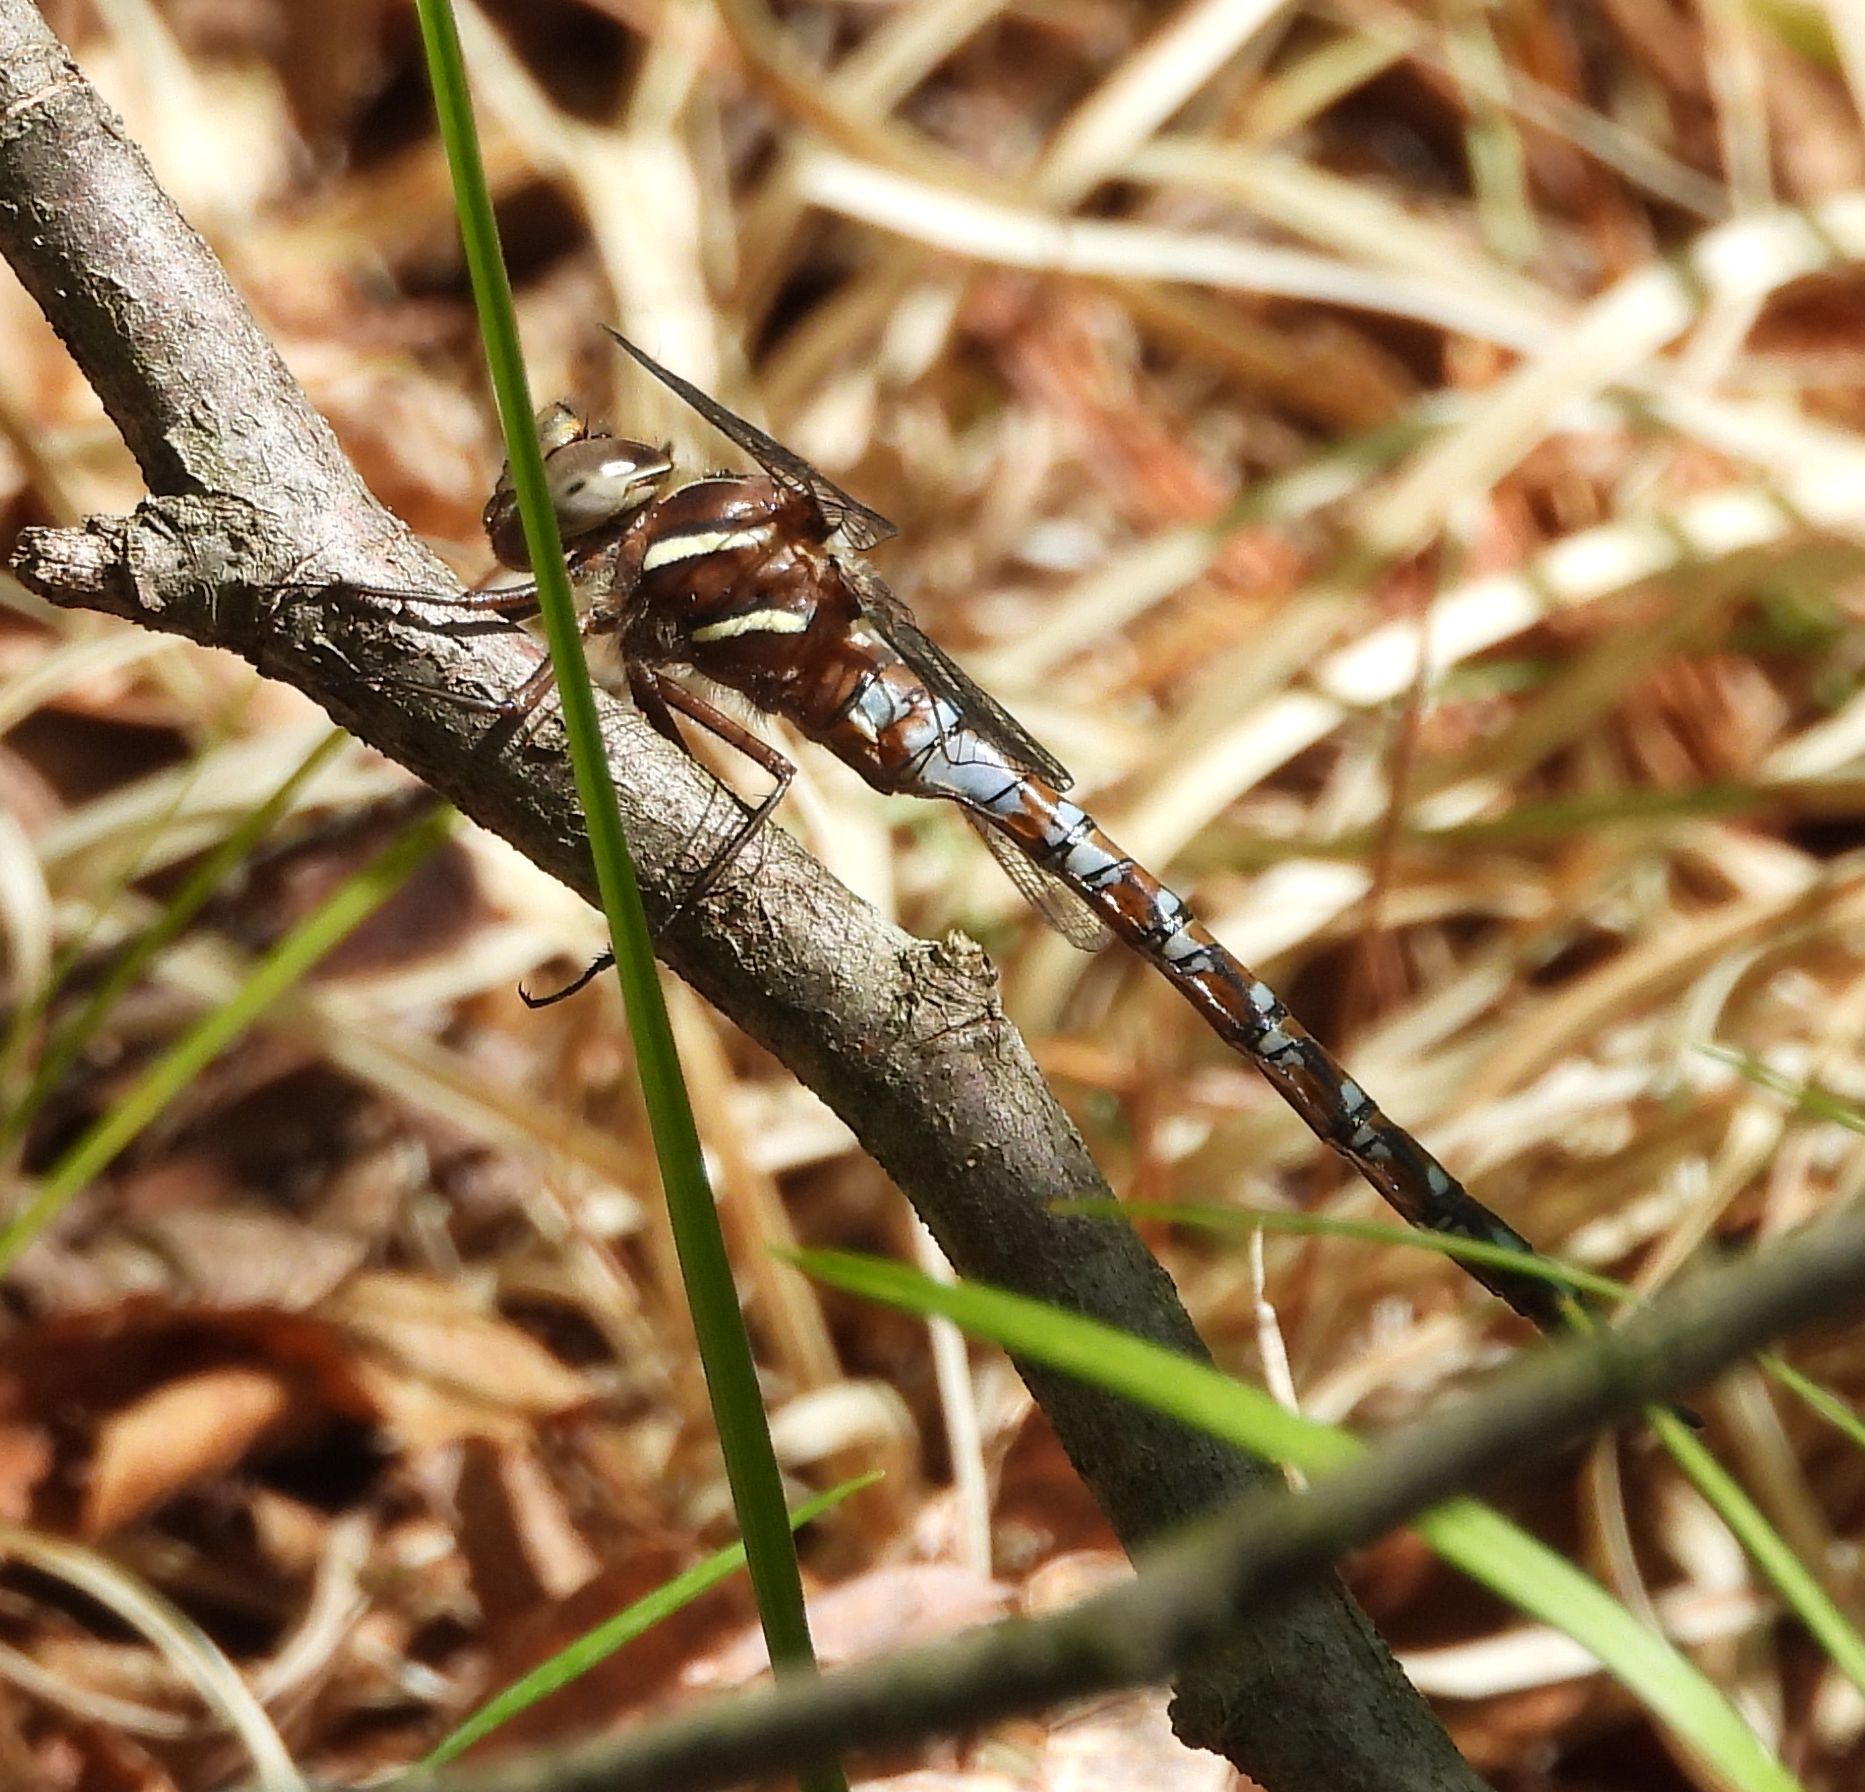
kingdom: Animalia
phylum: Arthropoda
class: Insecta
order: Odonata
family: Aeshnidae
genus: Basiaeschna
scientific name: Basiaeschna janata
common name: Springtime darner
